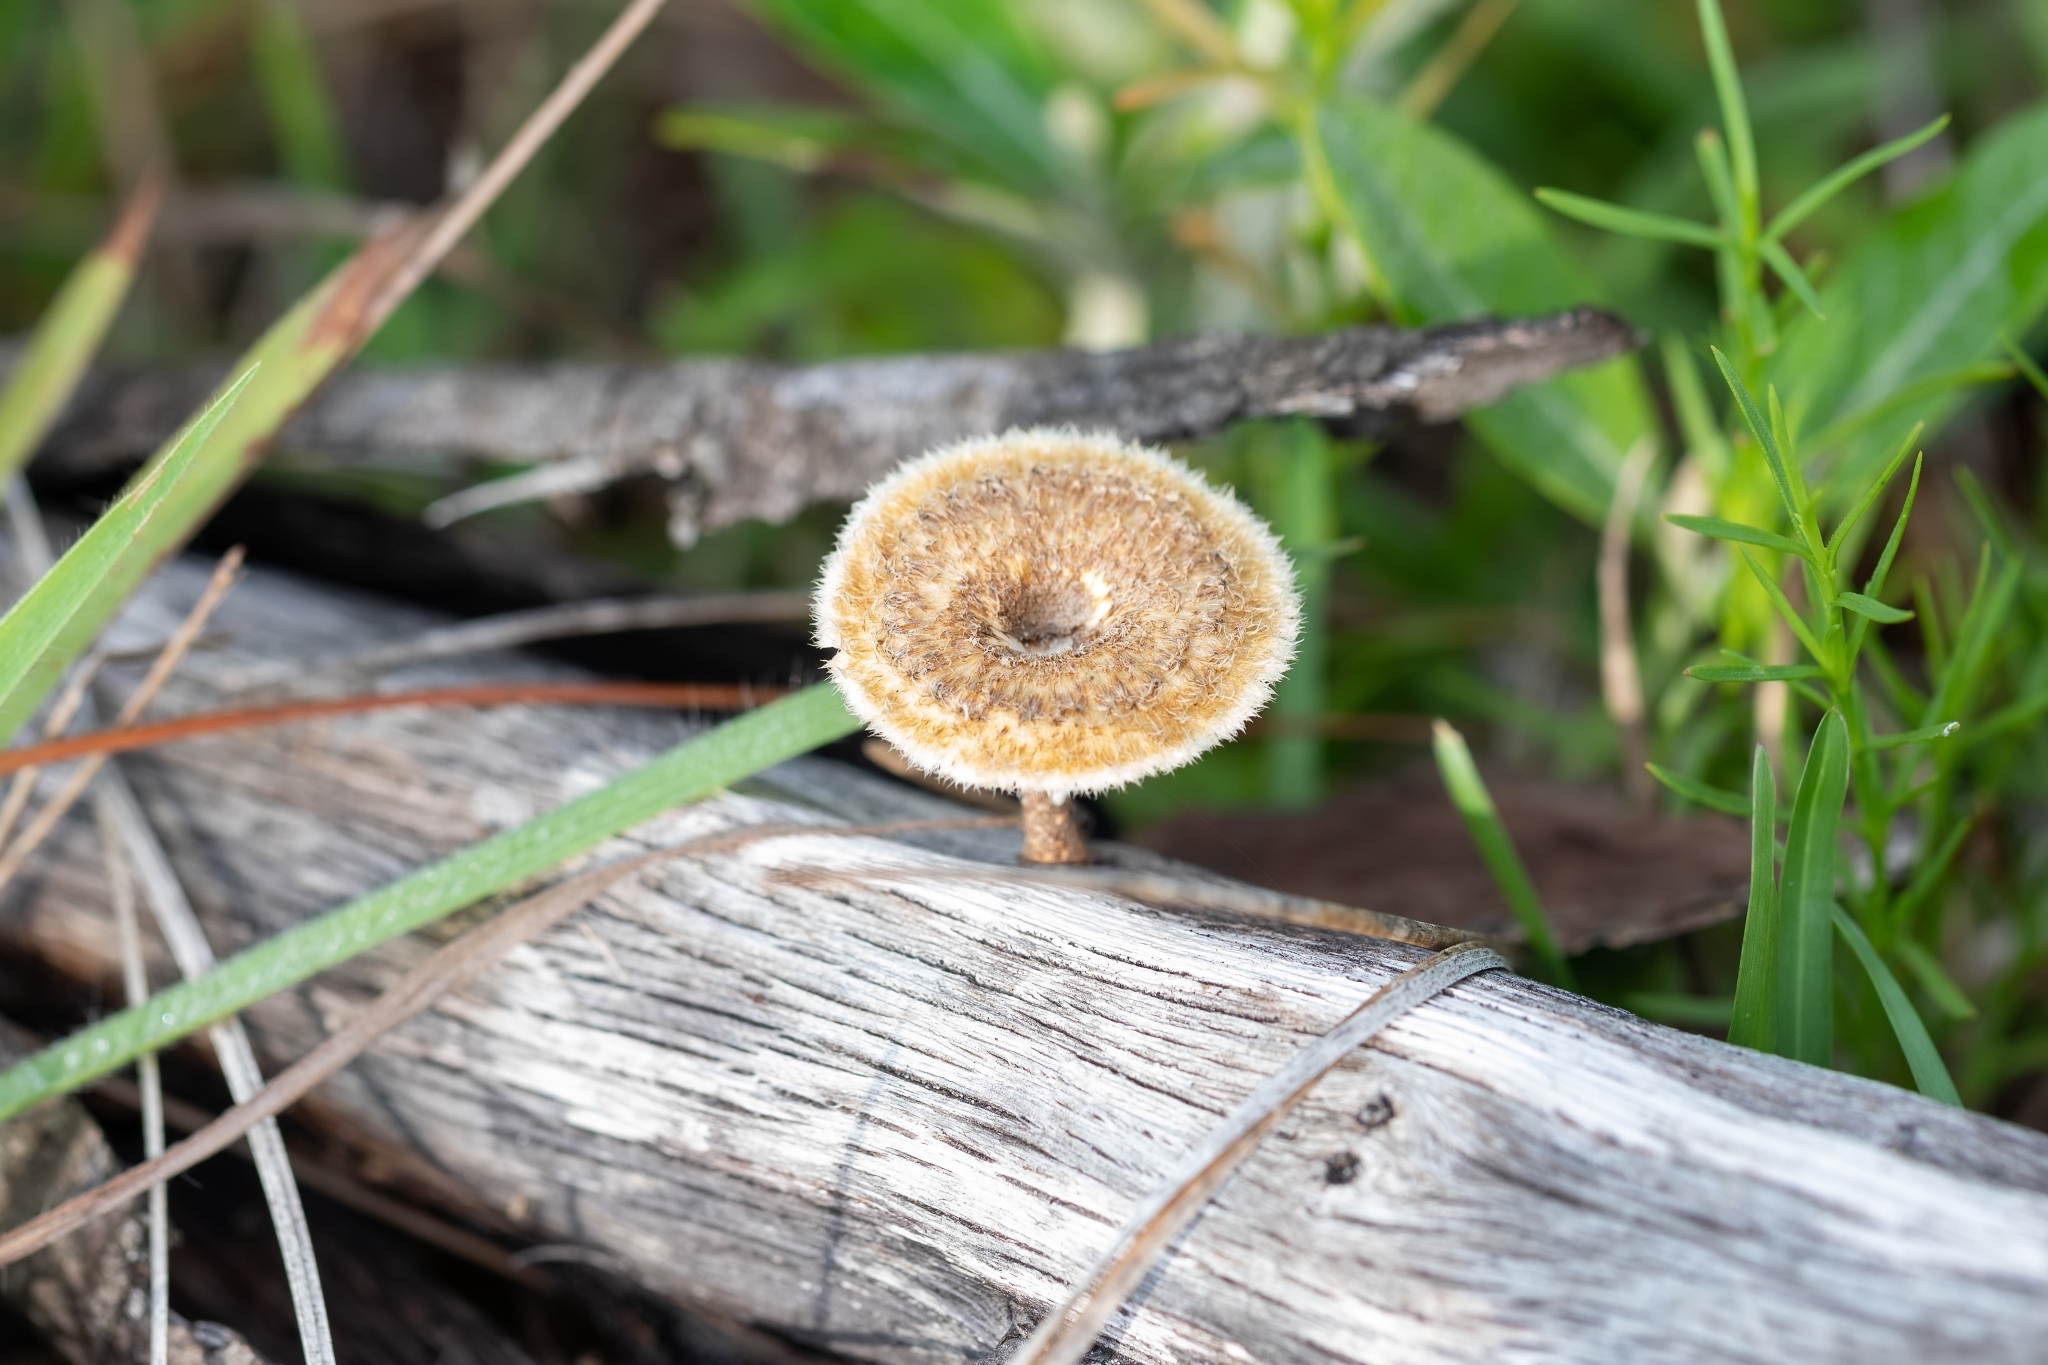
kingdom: Fungi
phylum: Basidiomycota
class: Agaricomycetes
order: Polyporales
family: Polyporaceae
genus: Lentinus
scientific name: Lentinus crinitus
